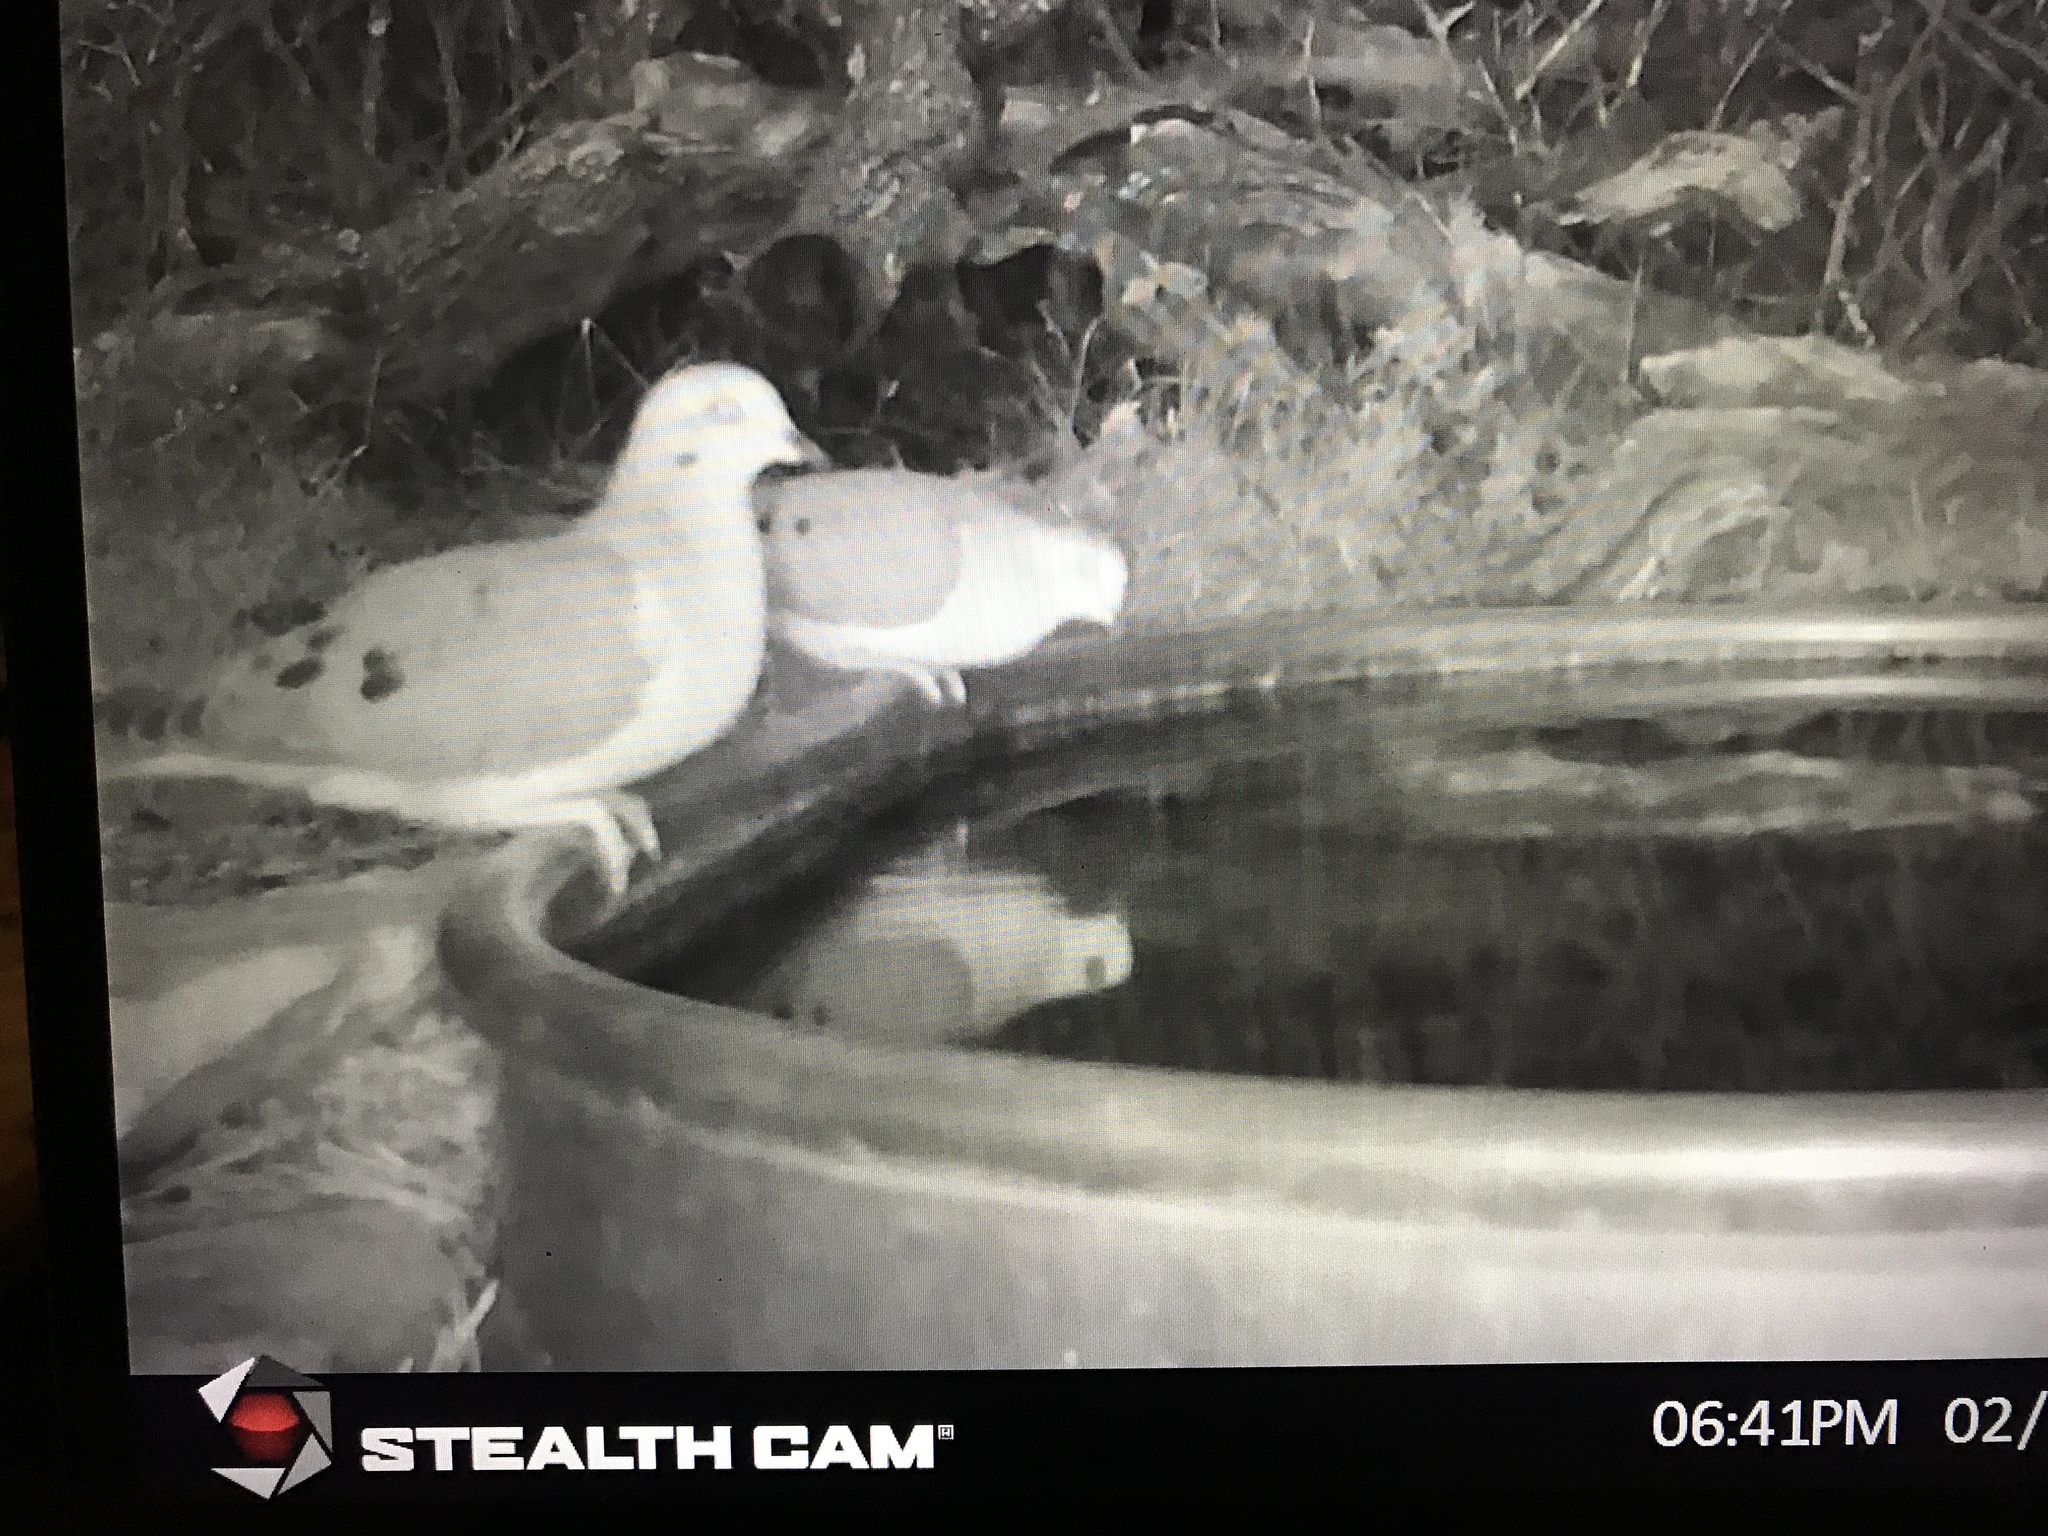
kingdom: Animalia
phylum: Chordata
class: Aves
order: Columbiformes
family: Columbidae
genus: Zenaida
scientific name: Zenaida macroura
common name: Mourning dove
